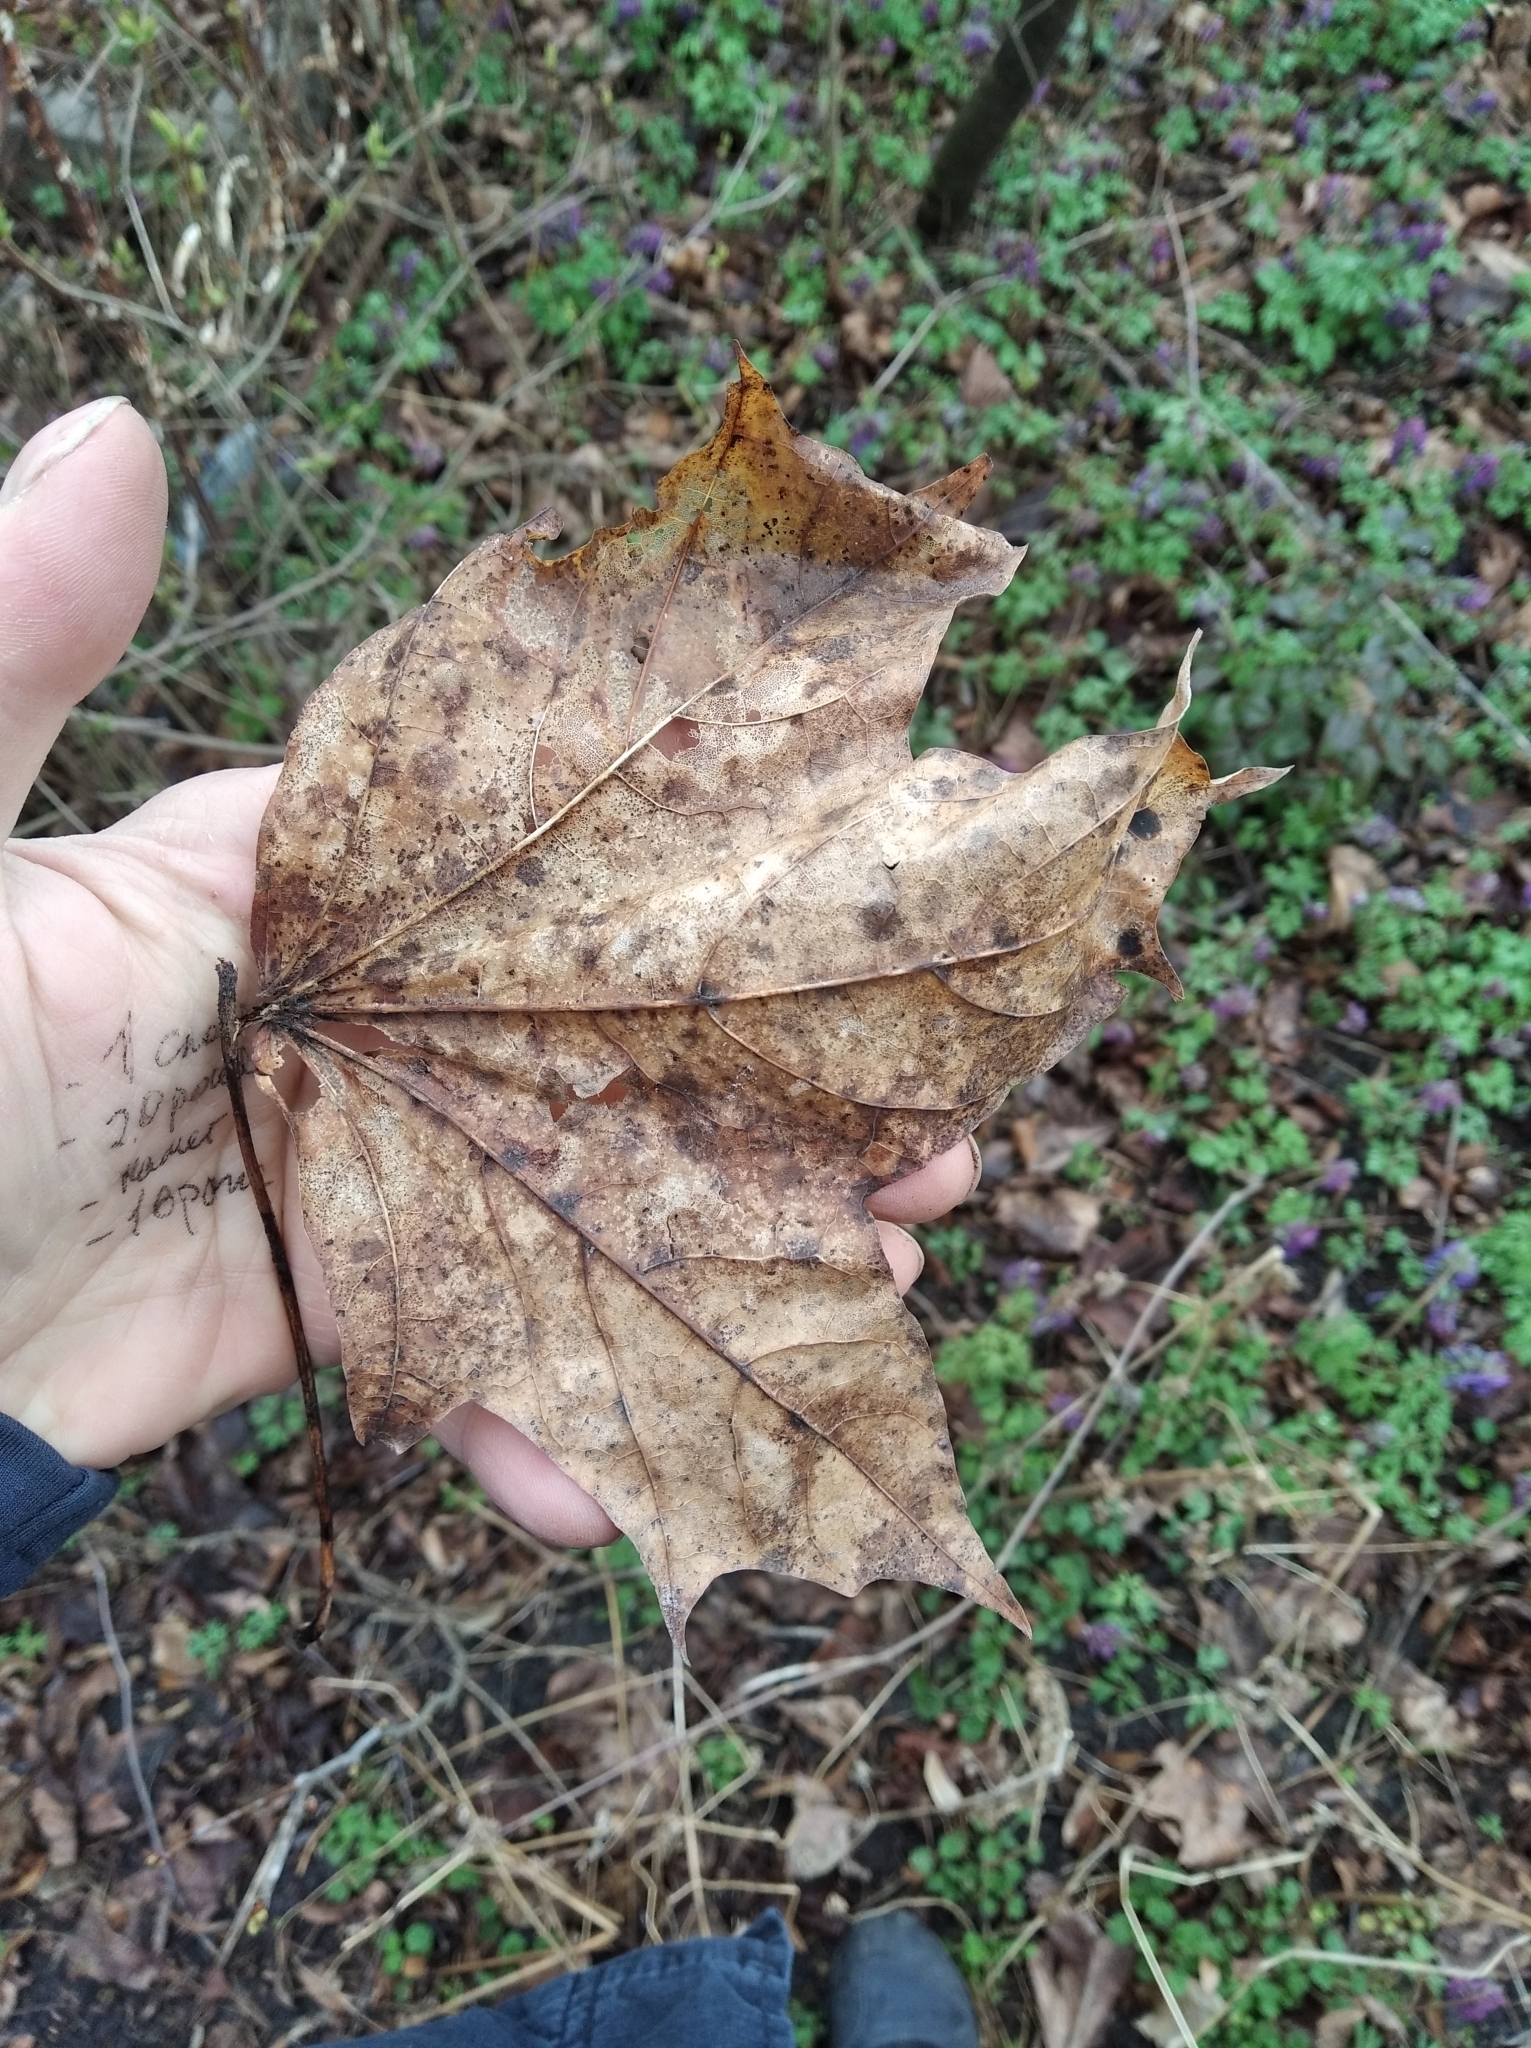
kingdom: Plantae
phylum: Tracheophyta
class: Magnoliopsida
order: Sapindales
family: Sapindaceae
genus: Acer
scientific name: Acer platanoides
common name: Norway maple
